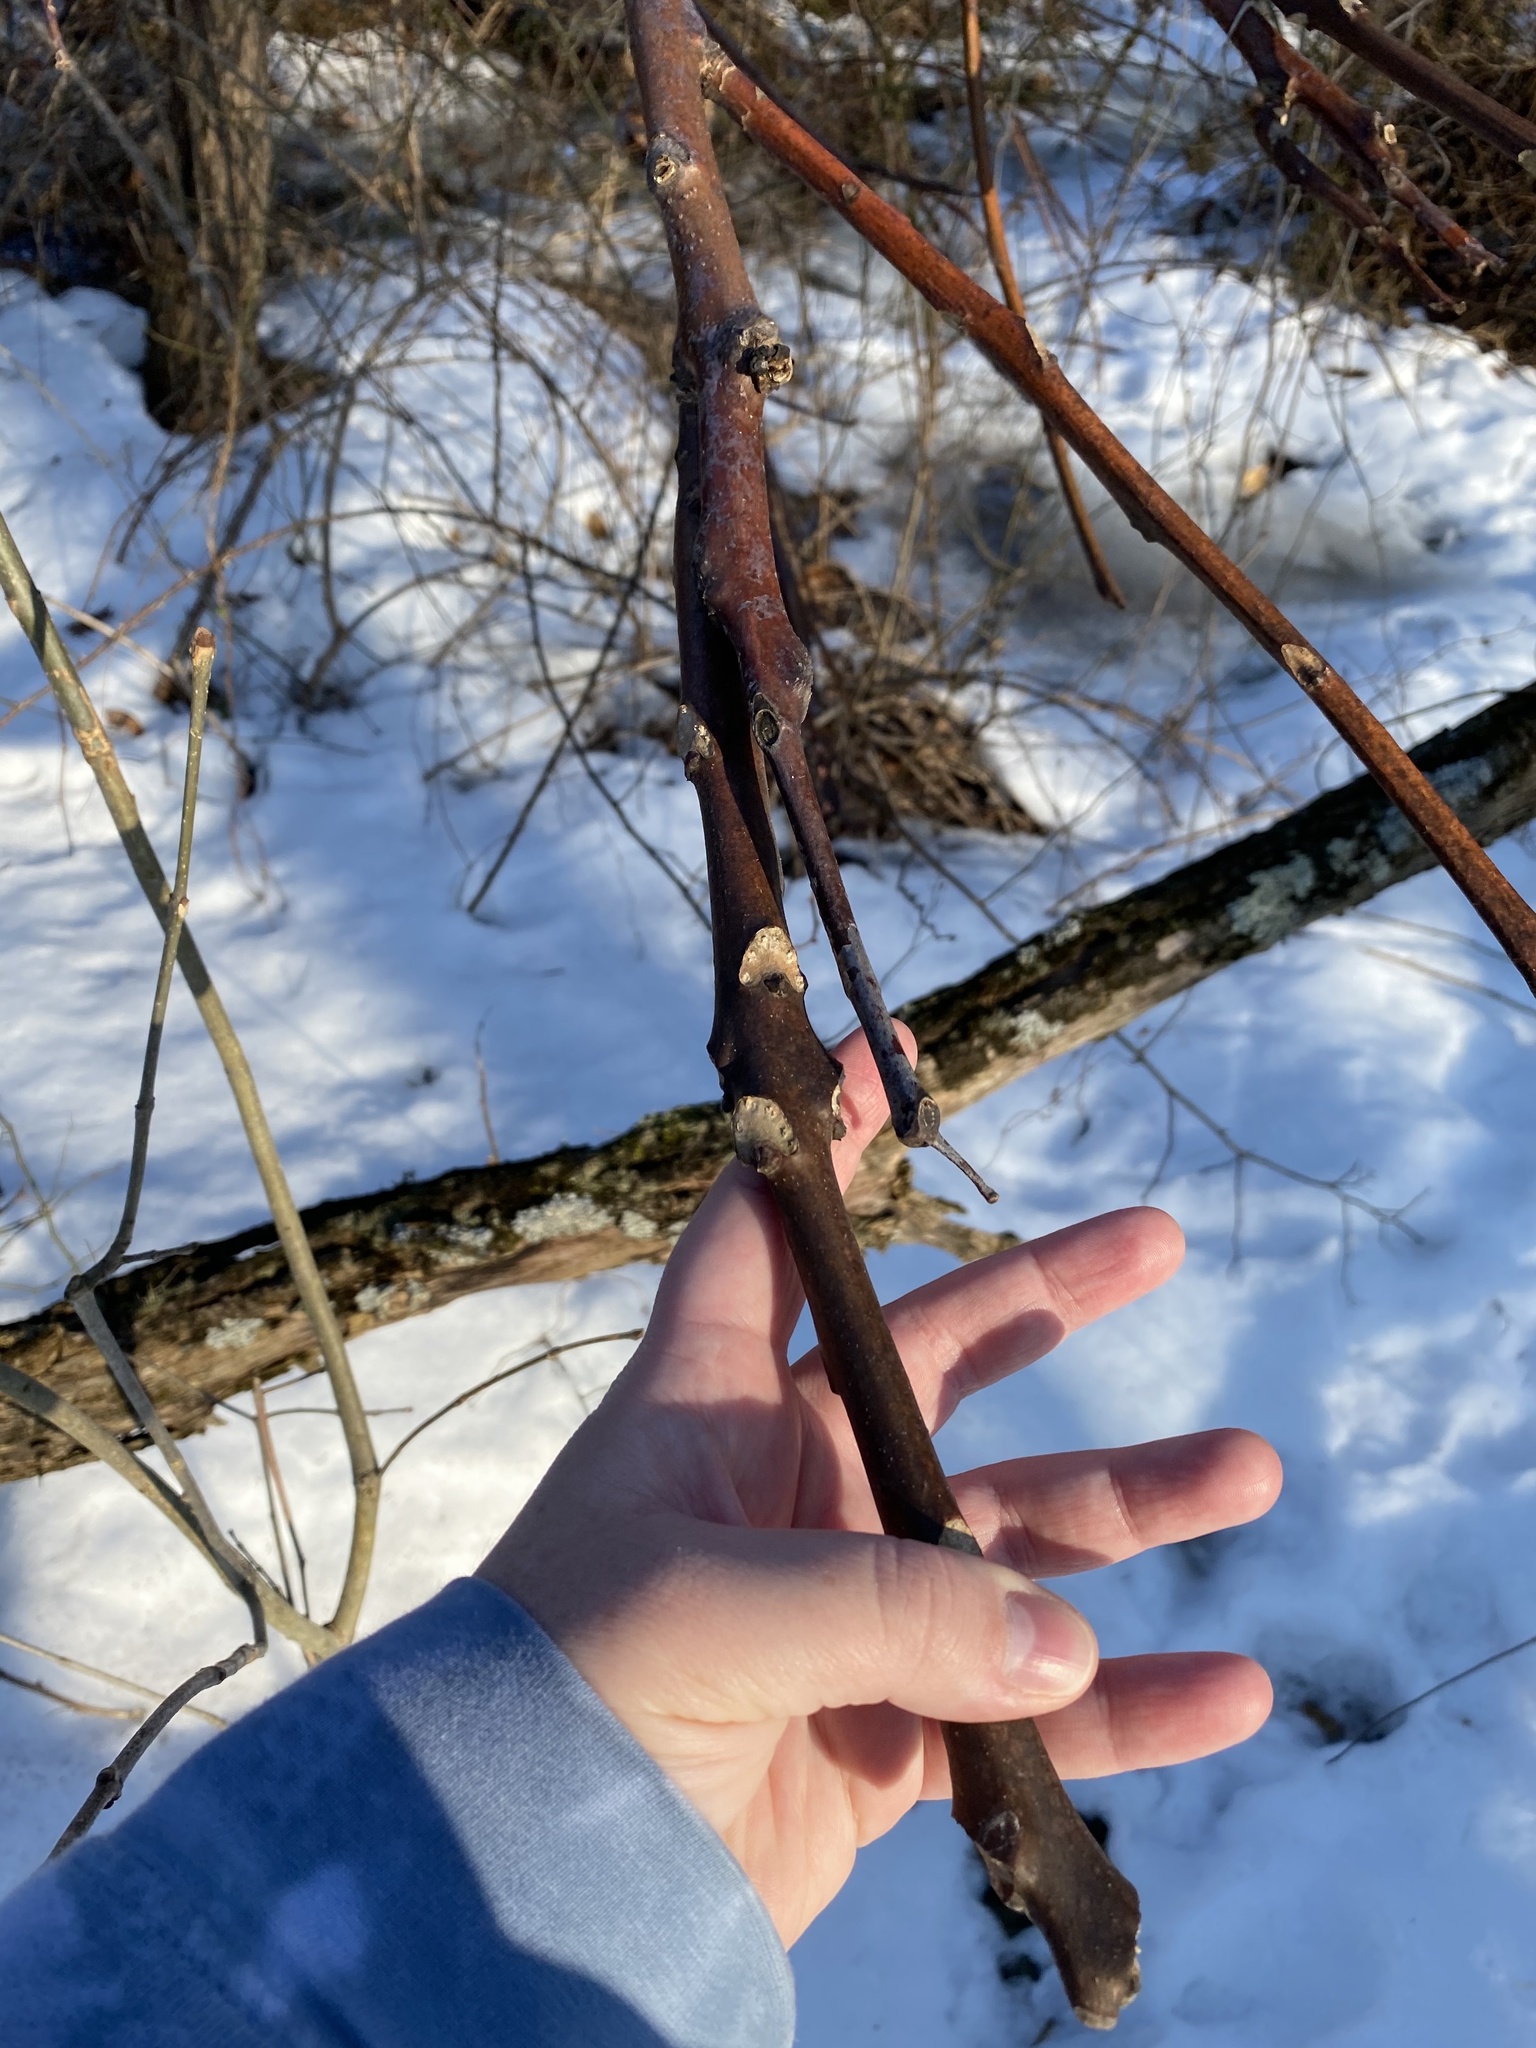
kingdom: Plantae
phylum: Tracheophyta
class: Magnoliopsida
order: Sapindales
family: Simaroubaceae
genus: Ailanthus
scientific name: Ailanthus altissima
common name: Tree-of-heaven
